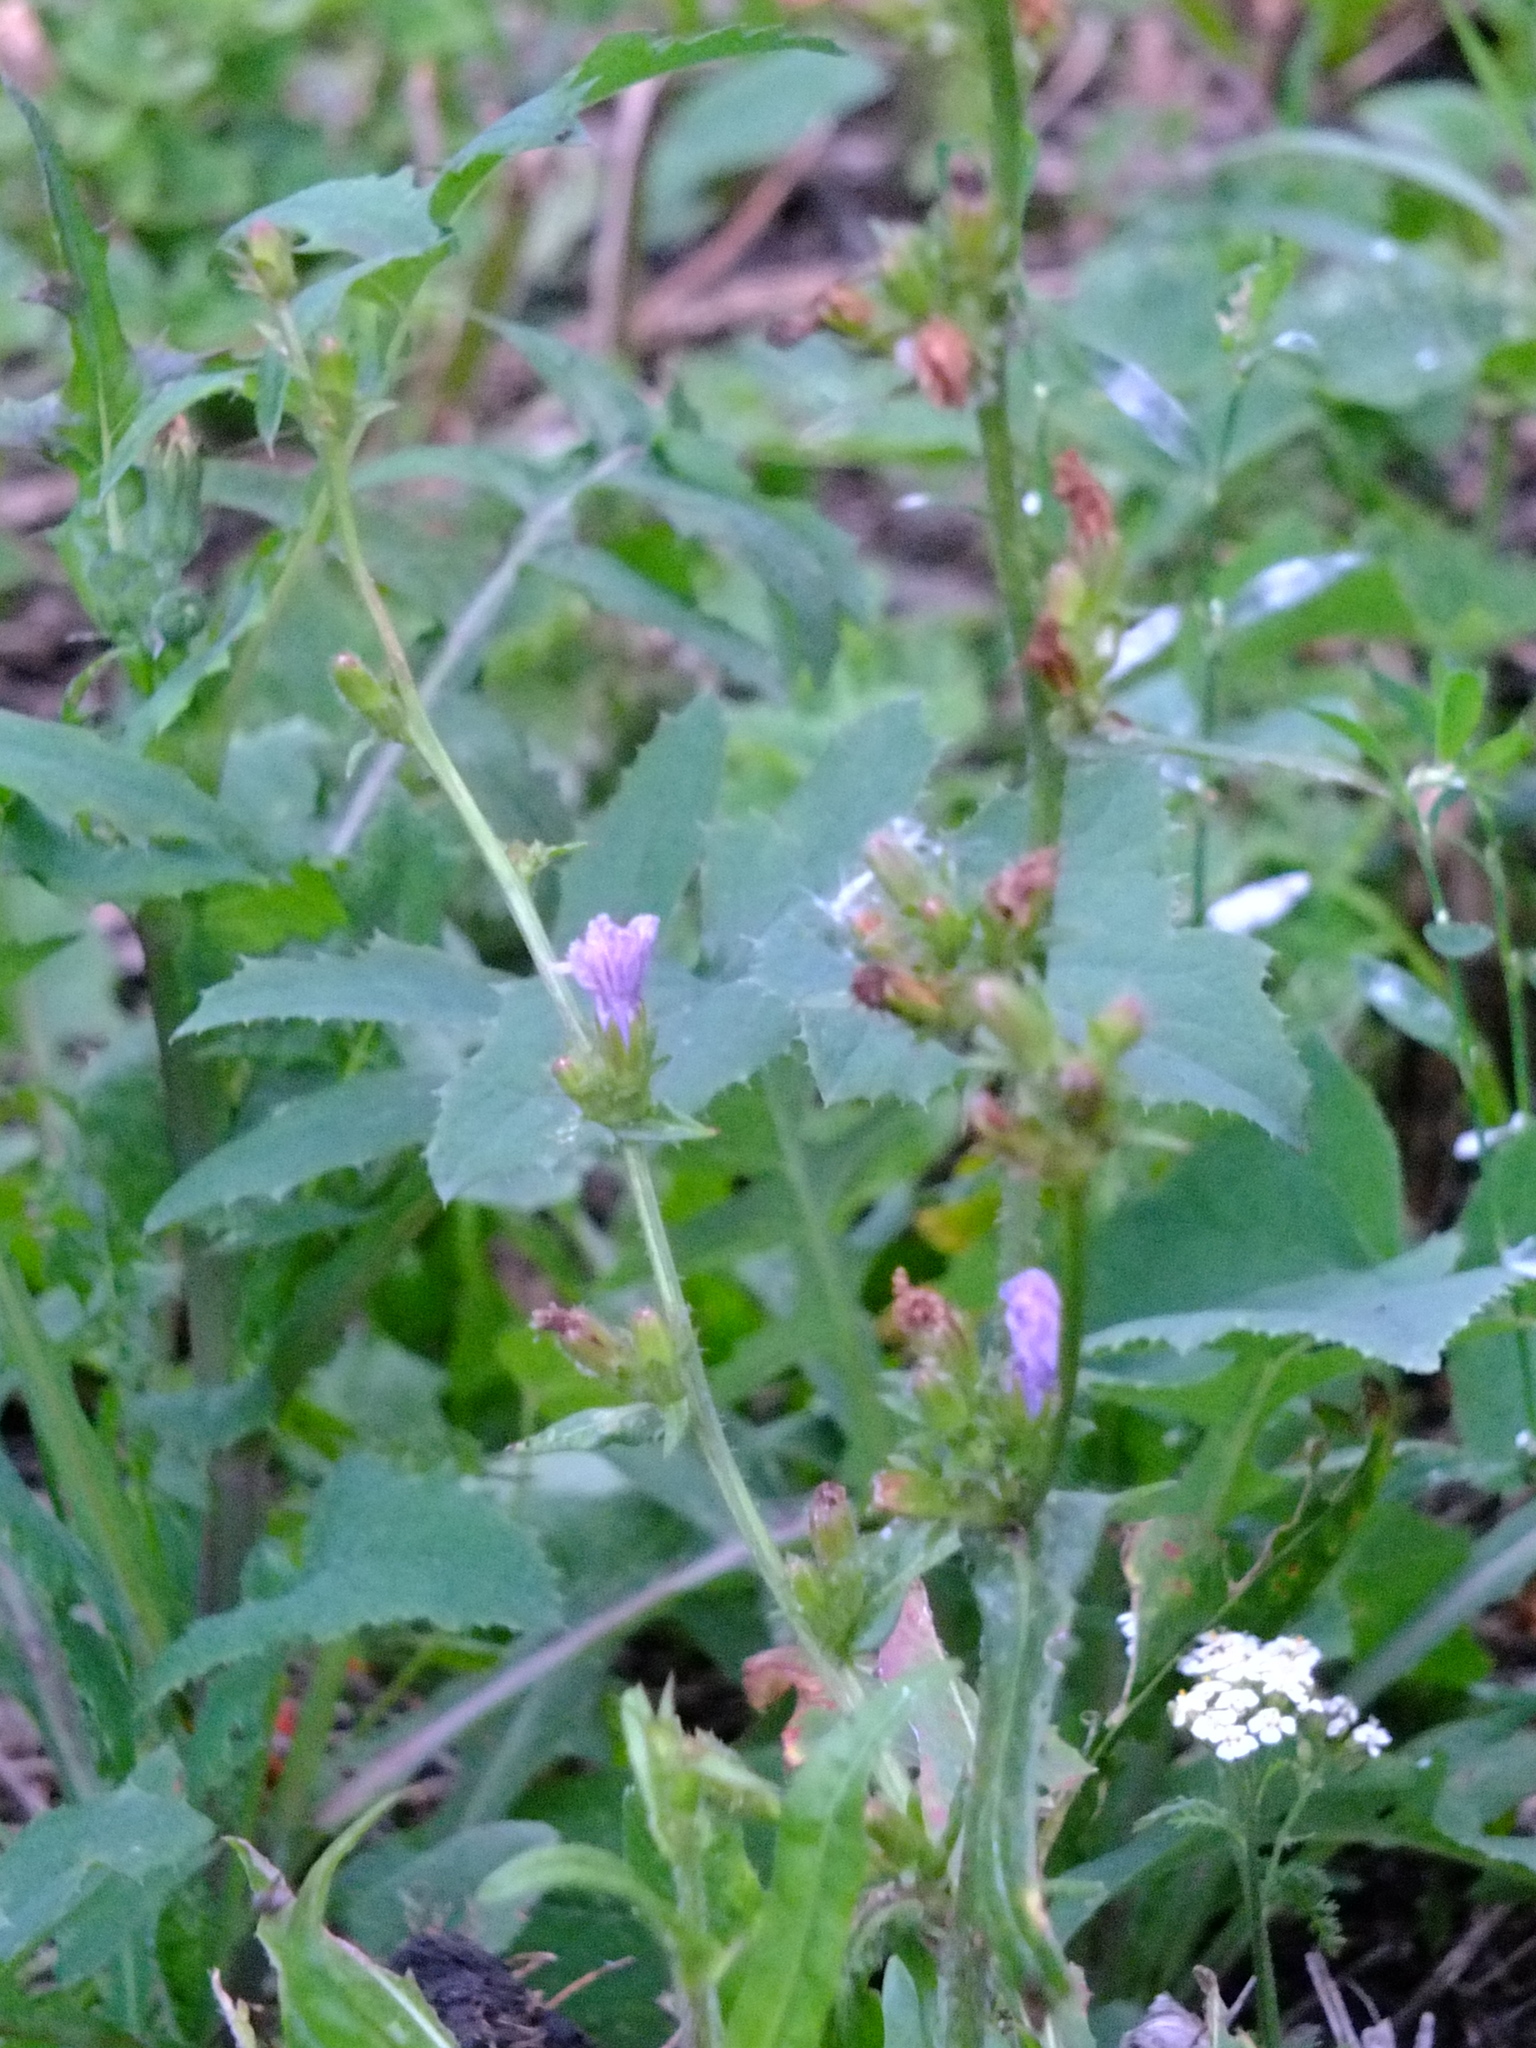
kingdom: Plantae
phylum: Tracheophyta
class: Magnoliopsida
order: Asterales
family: Asteraceae
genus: Cichorium
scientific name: Cichorium intybus
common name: Chicory
